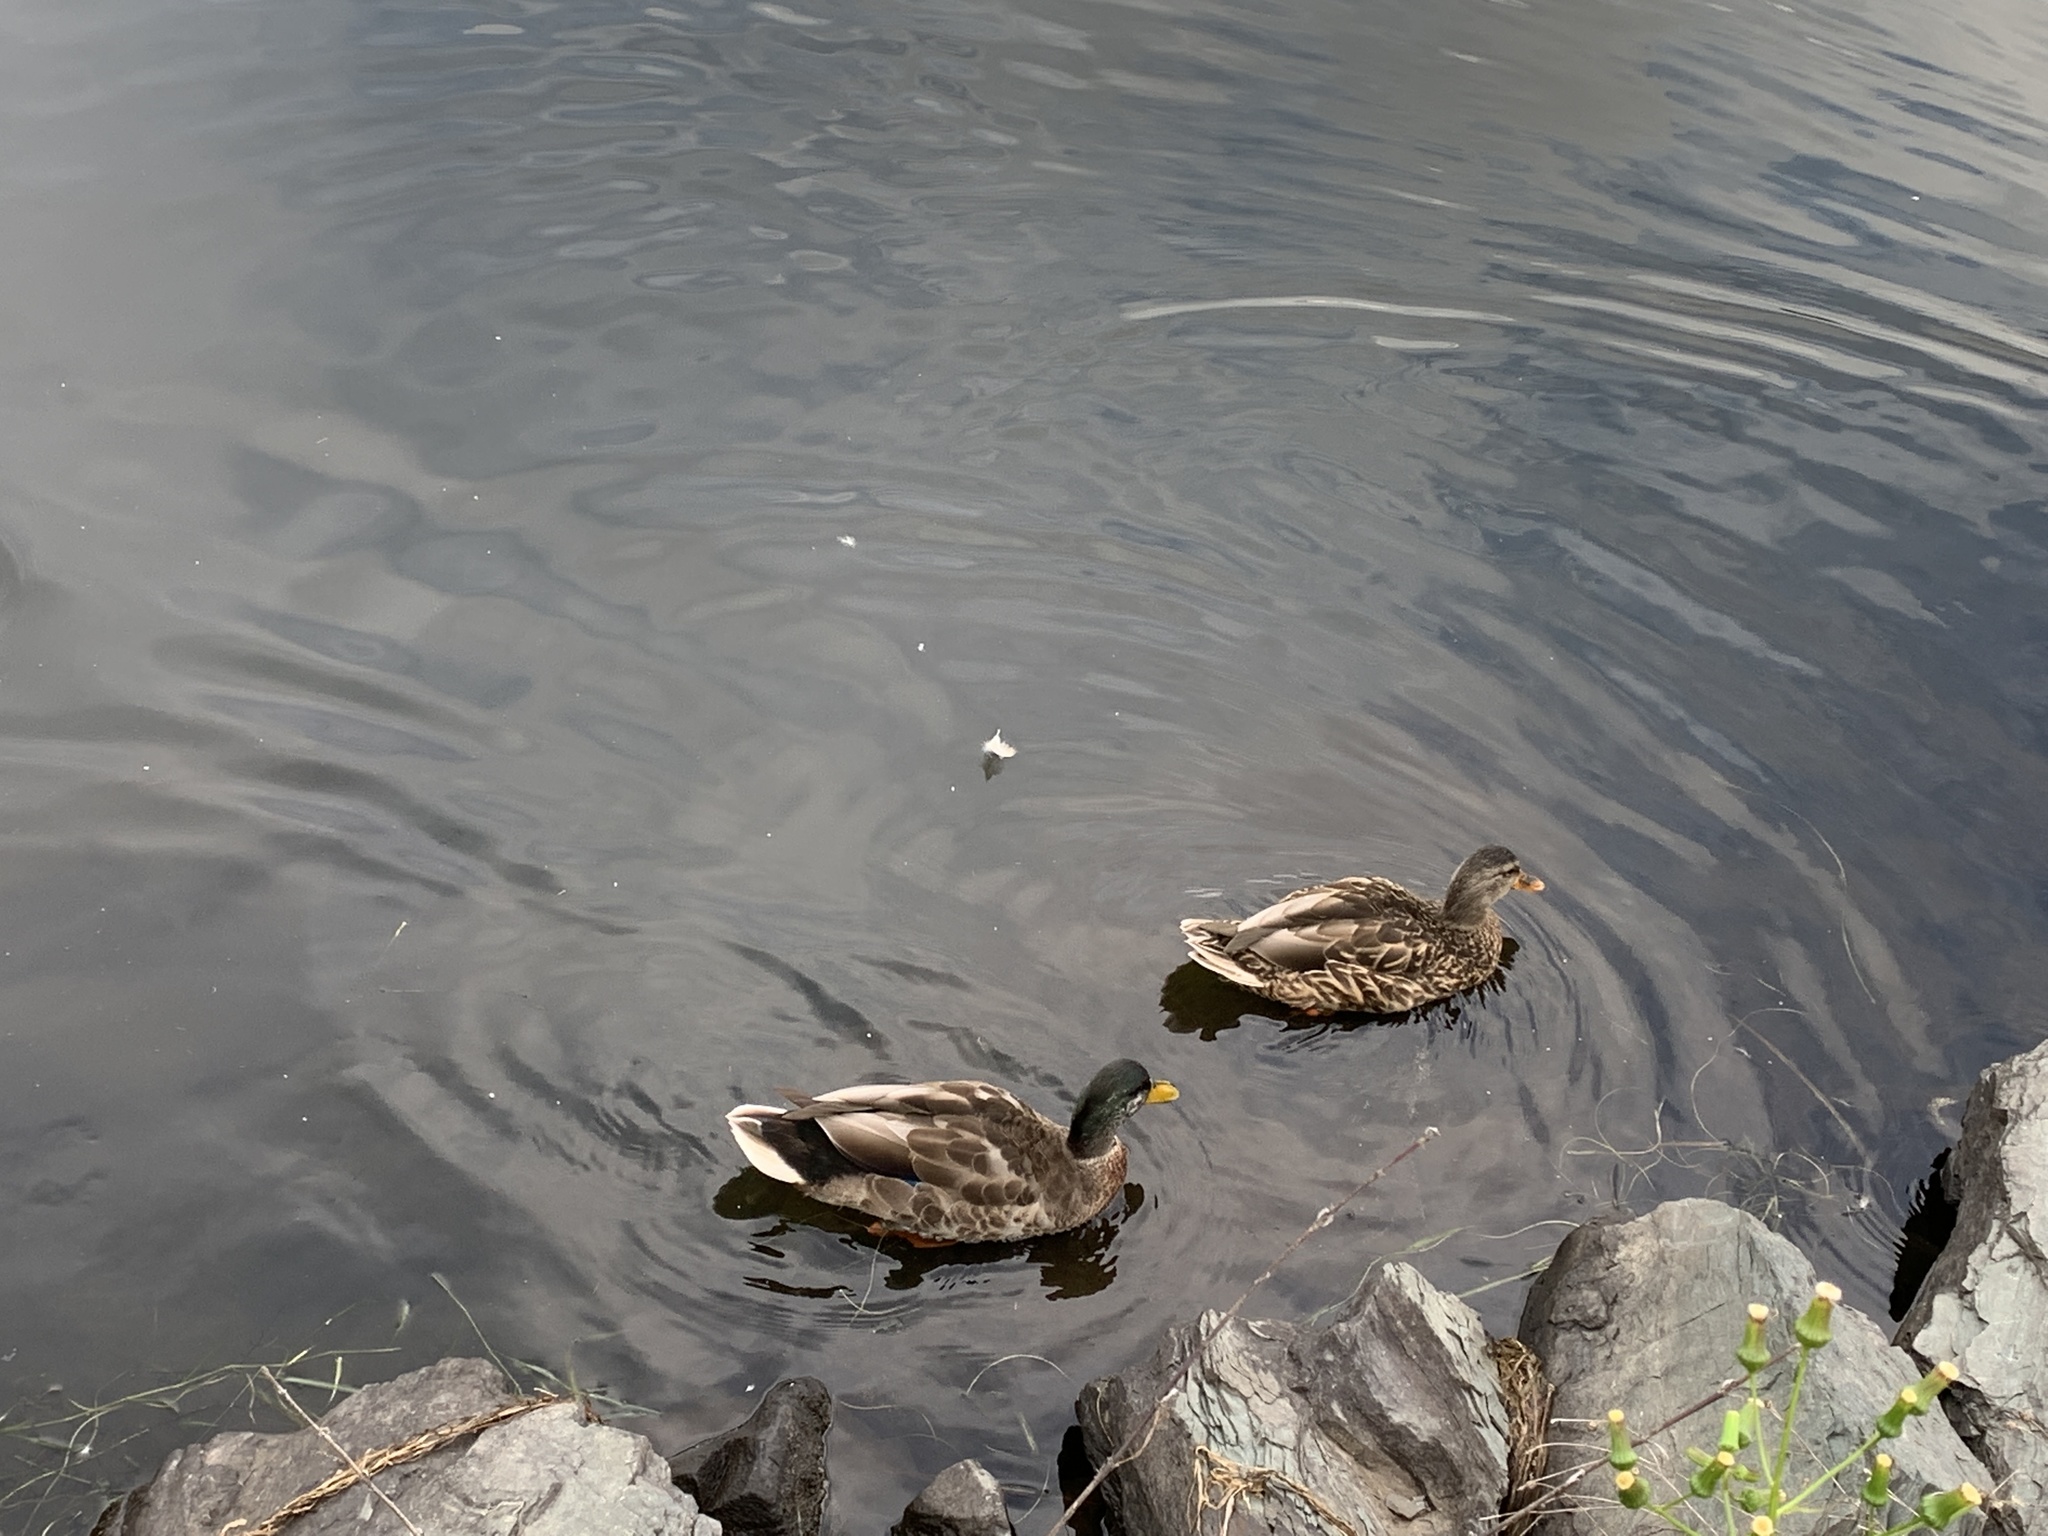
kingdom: Animalia
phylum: Chordata
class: Aves
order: Anseriformes
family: Anatidae
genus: Anas
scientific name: Anas platyrhynchos
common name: Mallard
